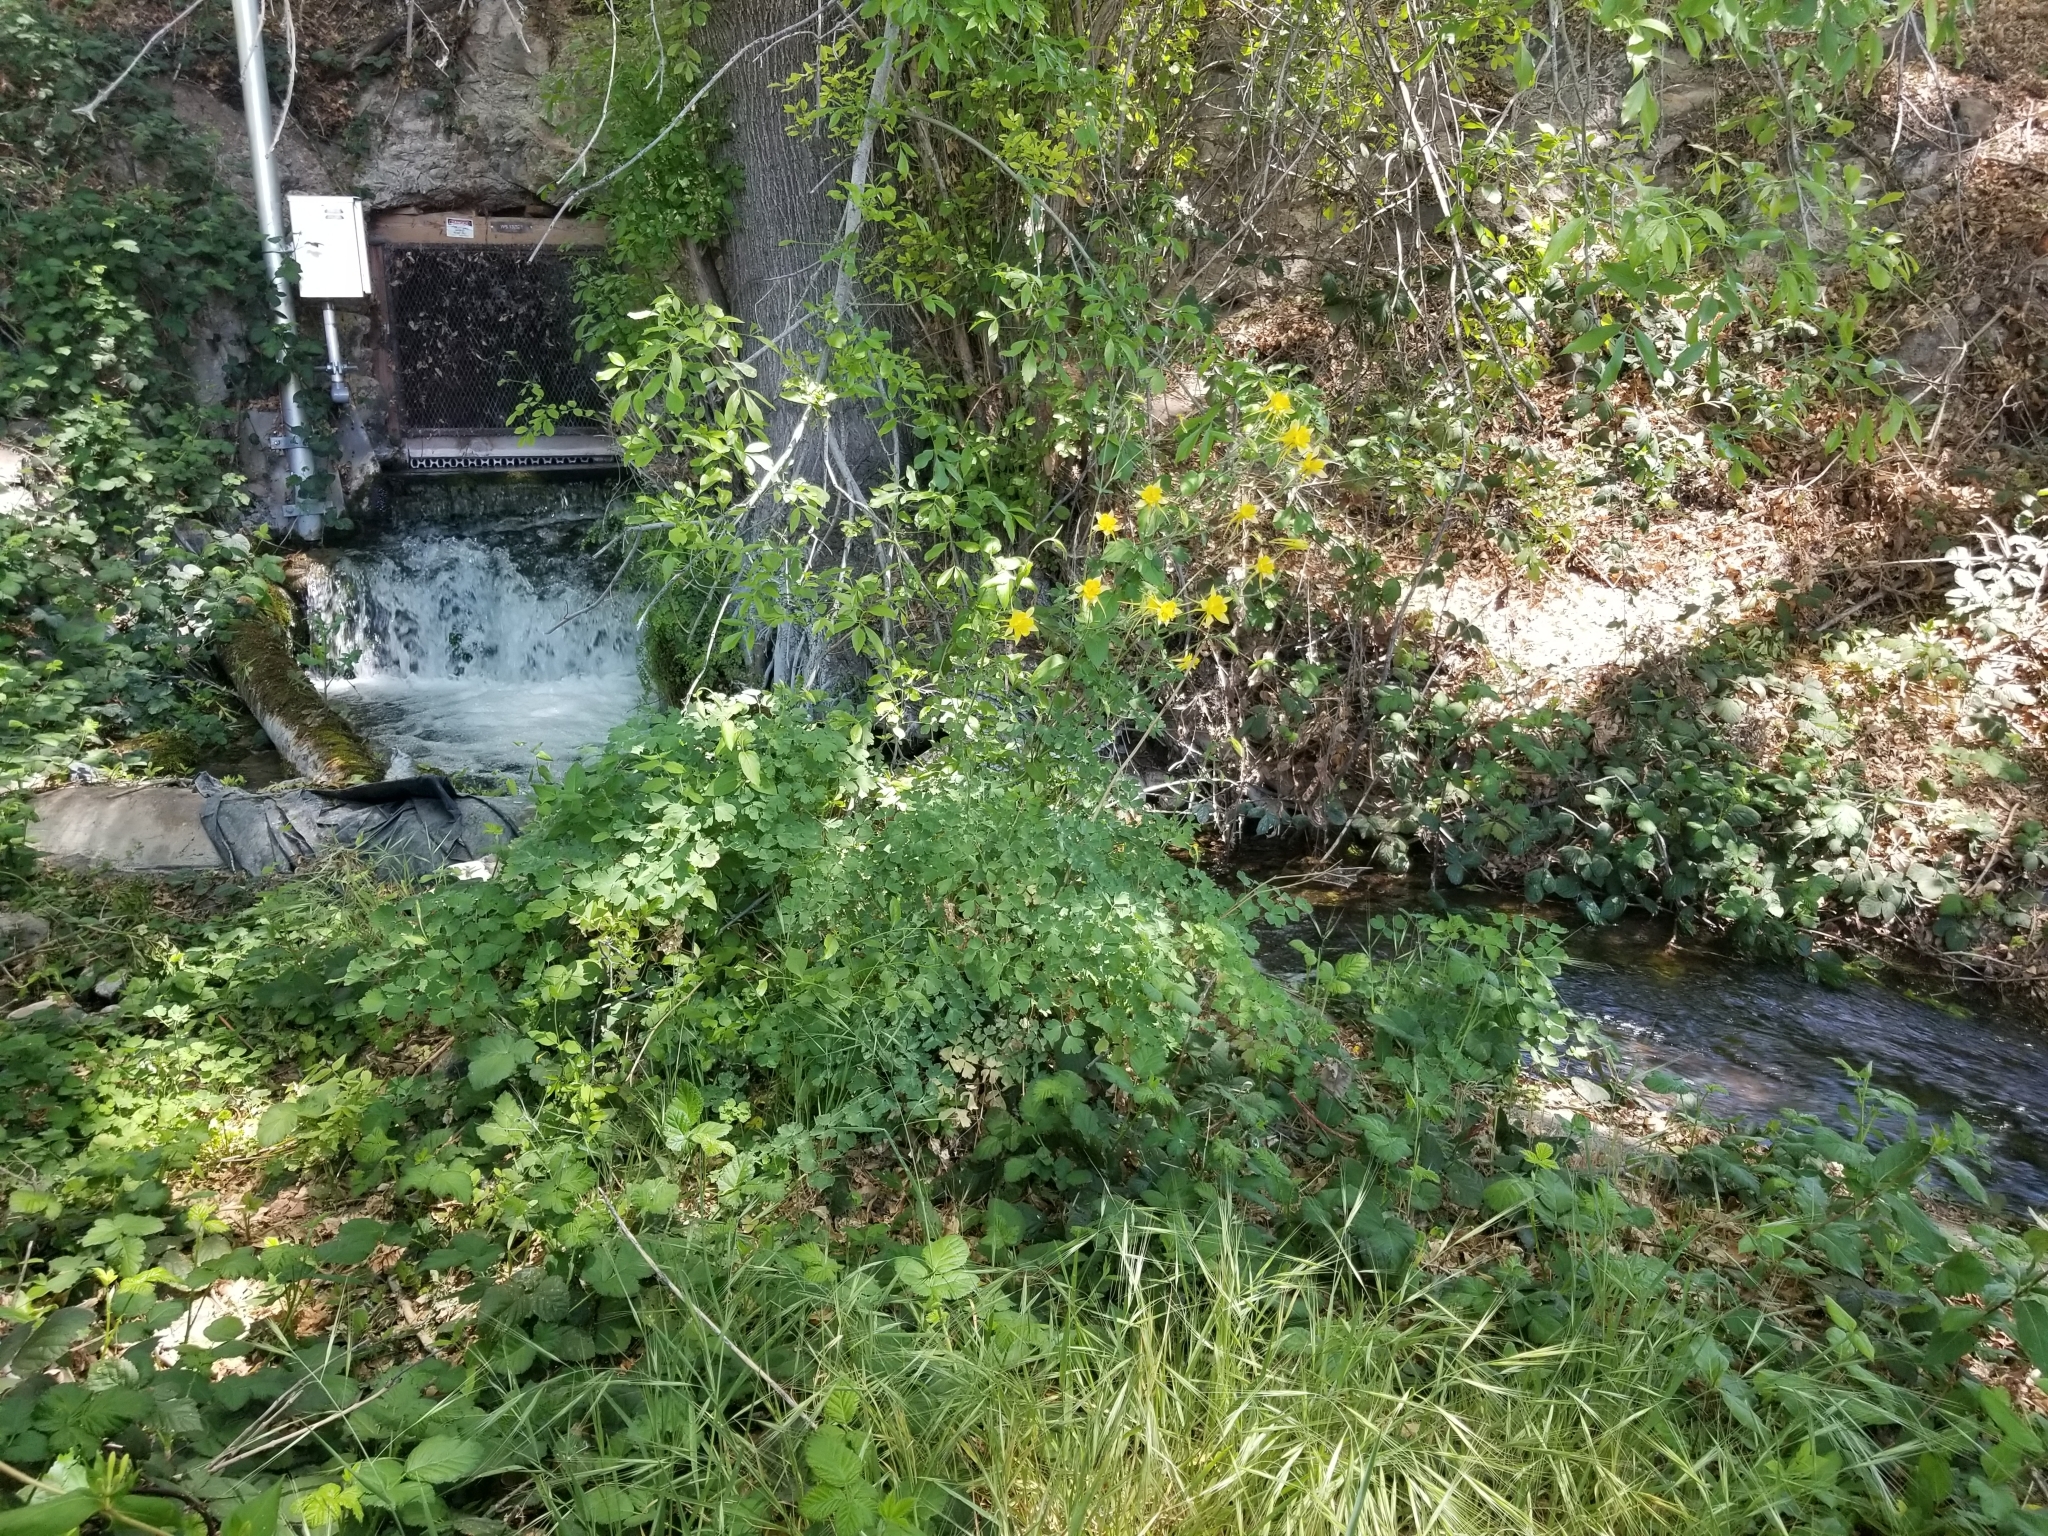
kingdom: Plantae
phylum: Tracheophyta
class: Magnoliopsida
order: Ranunculales
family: Ranunculaceae
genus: Aquilegia
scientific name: Aquilegia chrysantha
